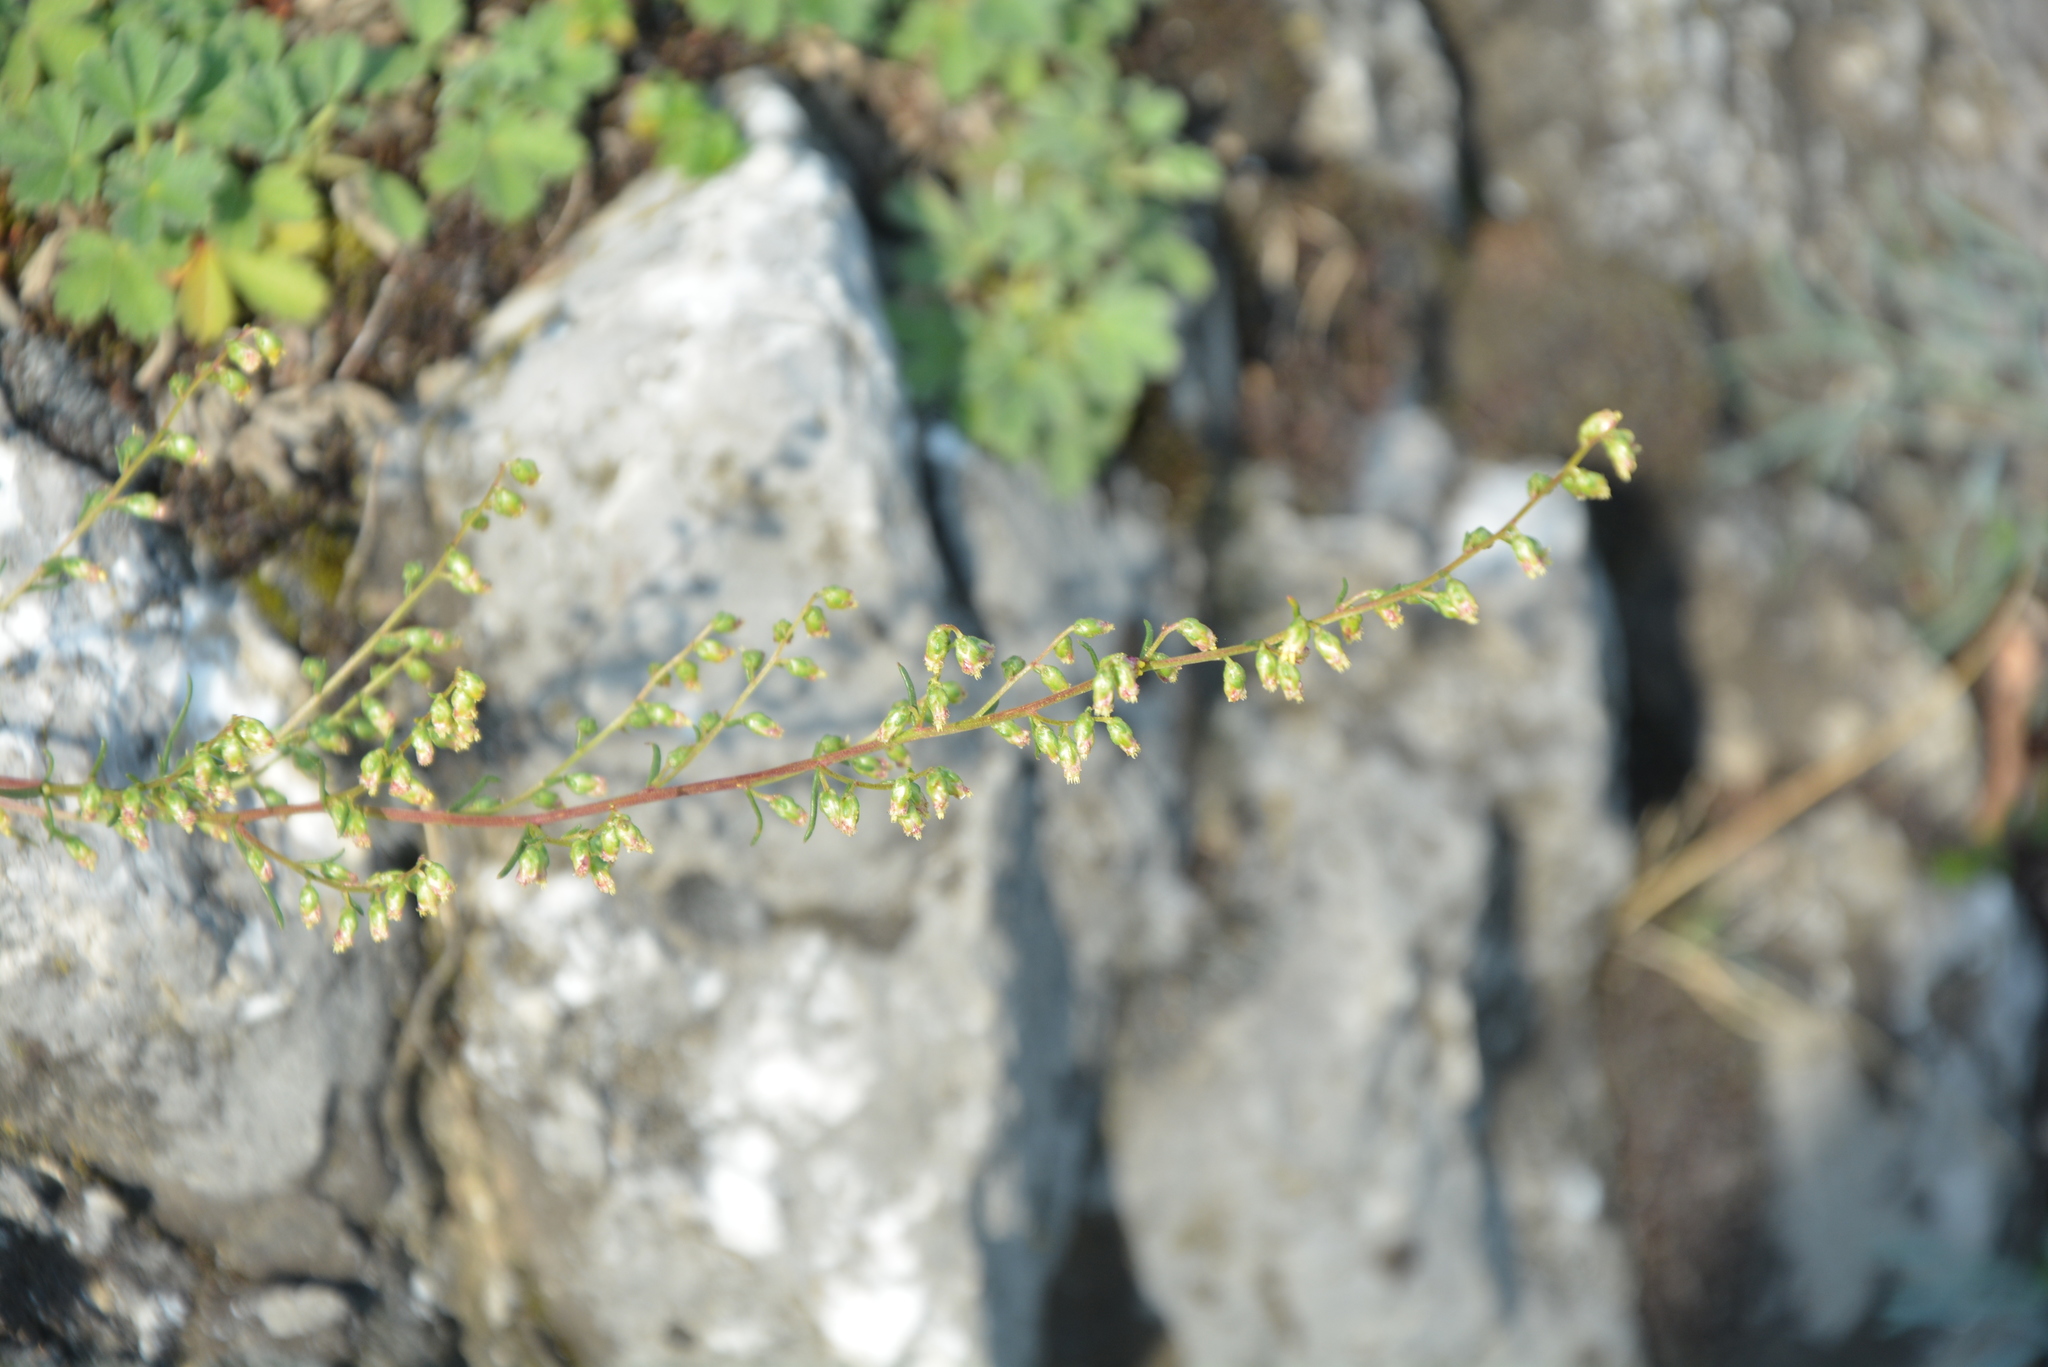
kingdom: Plantae
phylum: Tracheophyta
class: Magnoliopsida
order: Asterales
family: Asteraceae
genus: Artemisia
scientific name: Artemisia campestris
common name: Field wormwood
